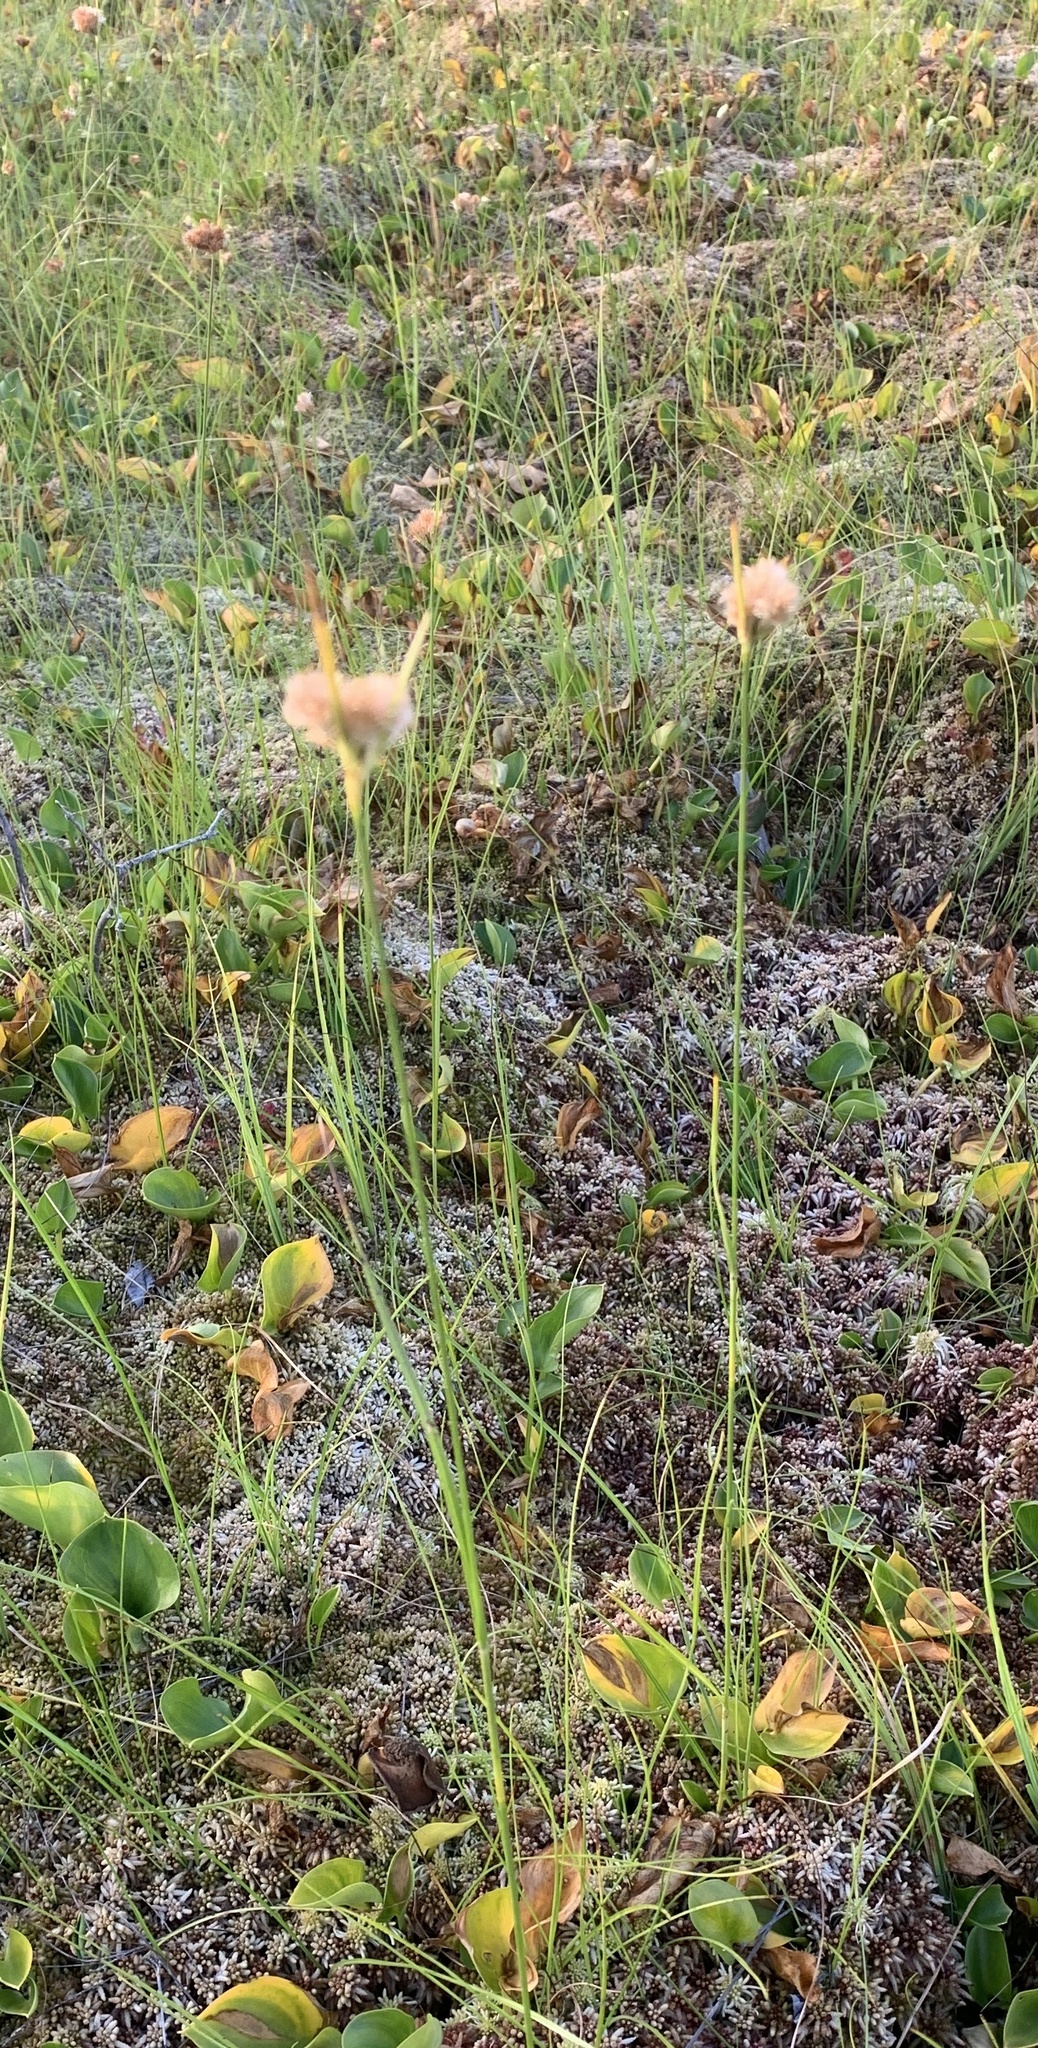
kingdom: Plantae
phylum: Tracheophyta
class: Liliopsida
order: Poales
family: Cyperaceae
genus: Eriophorum
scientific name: Eriophorum virginicum
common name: Tawny cottongrass
